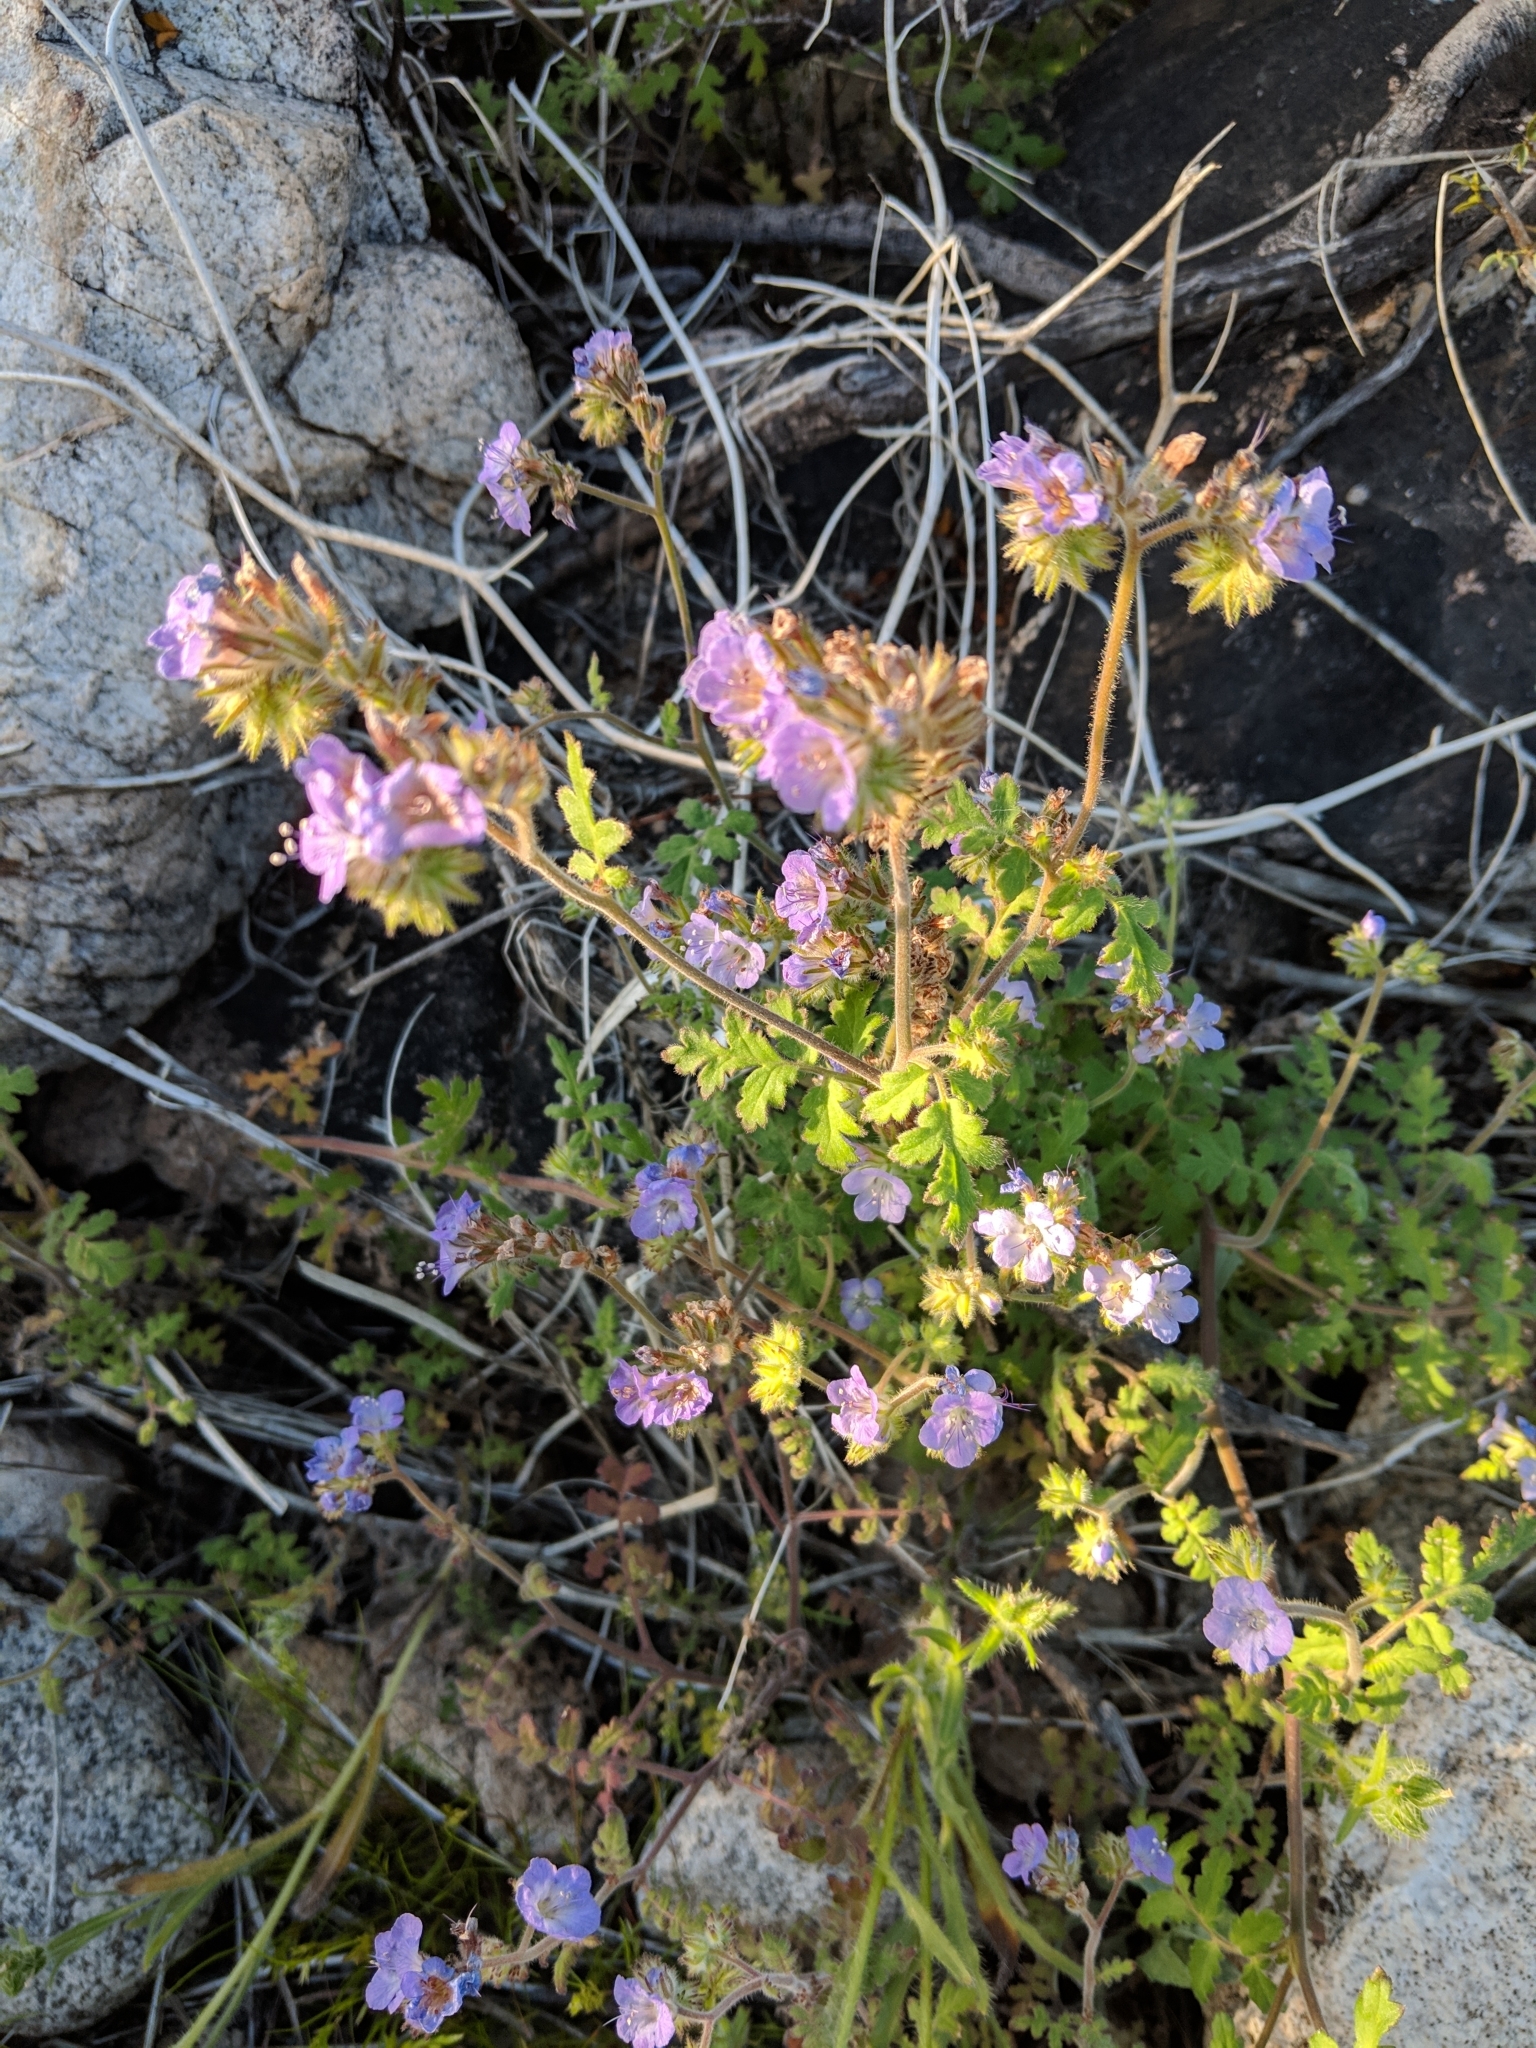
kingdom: Plantae
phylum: Tracheophyta
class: Magnoliopsida
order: Boraginales
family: Hydrophyllaceae
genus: Phacelia
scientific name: Phacelia distans
